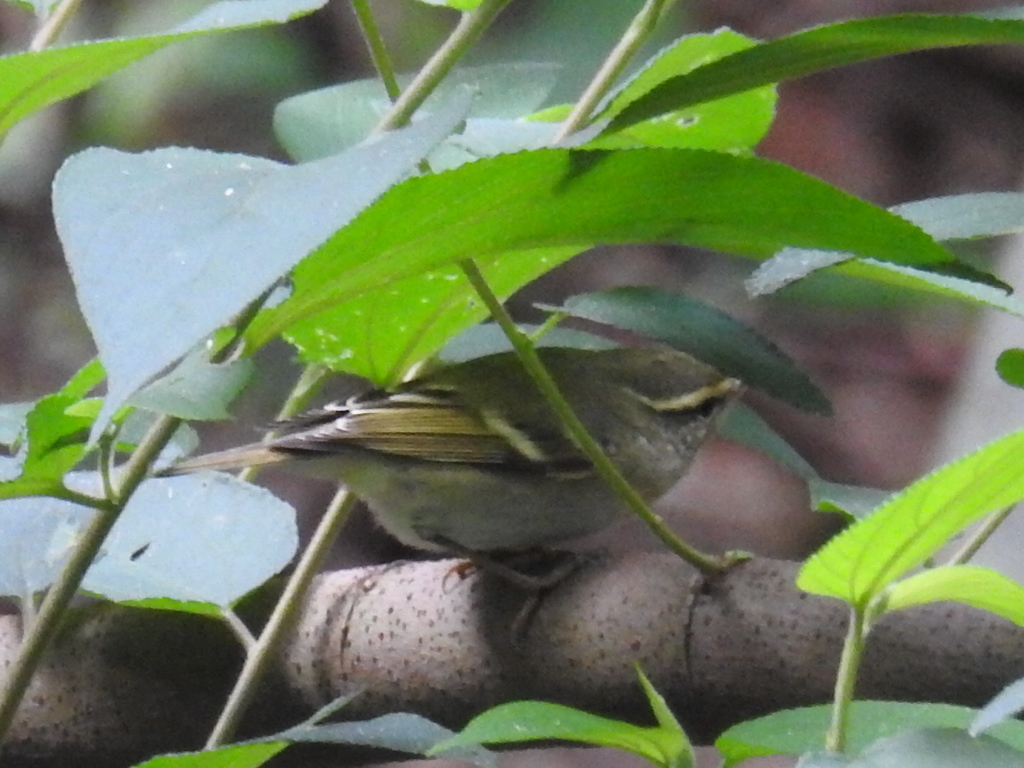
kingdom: Animalia
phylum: Chordata
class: Aves
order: Passeriformes
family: Phylloscopidae
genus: Phylloscopus
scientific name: Phylloscopus inornatus
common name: Yellow-browed warbler
